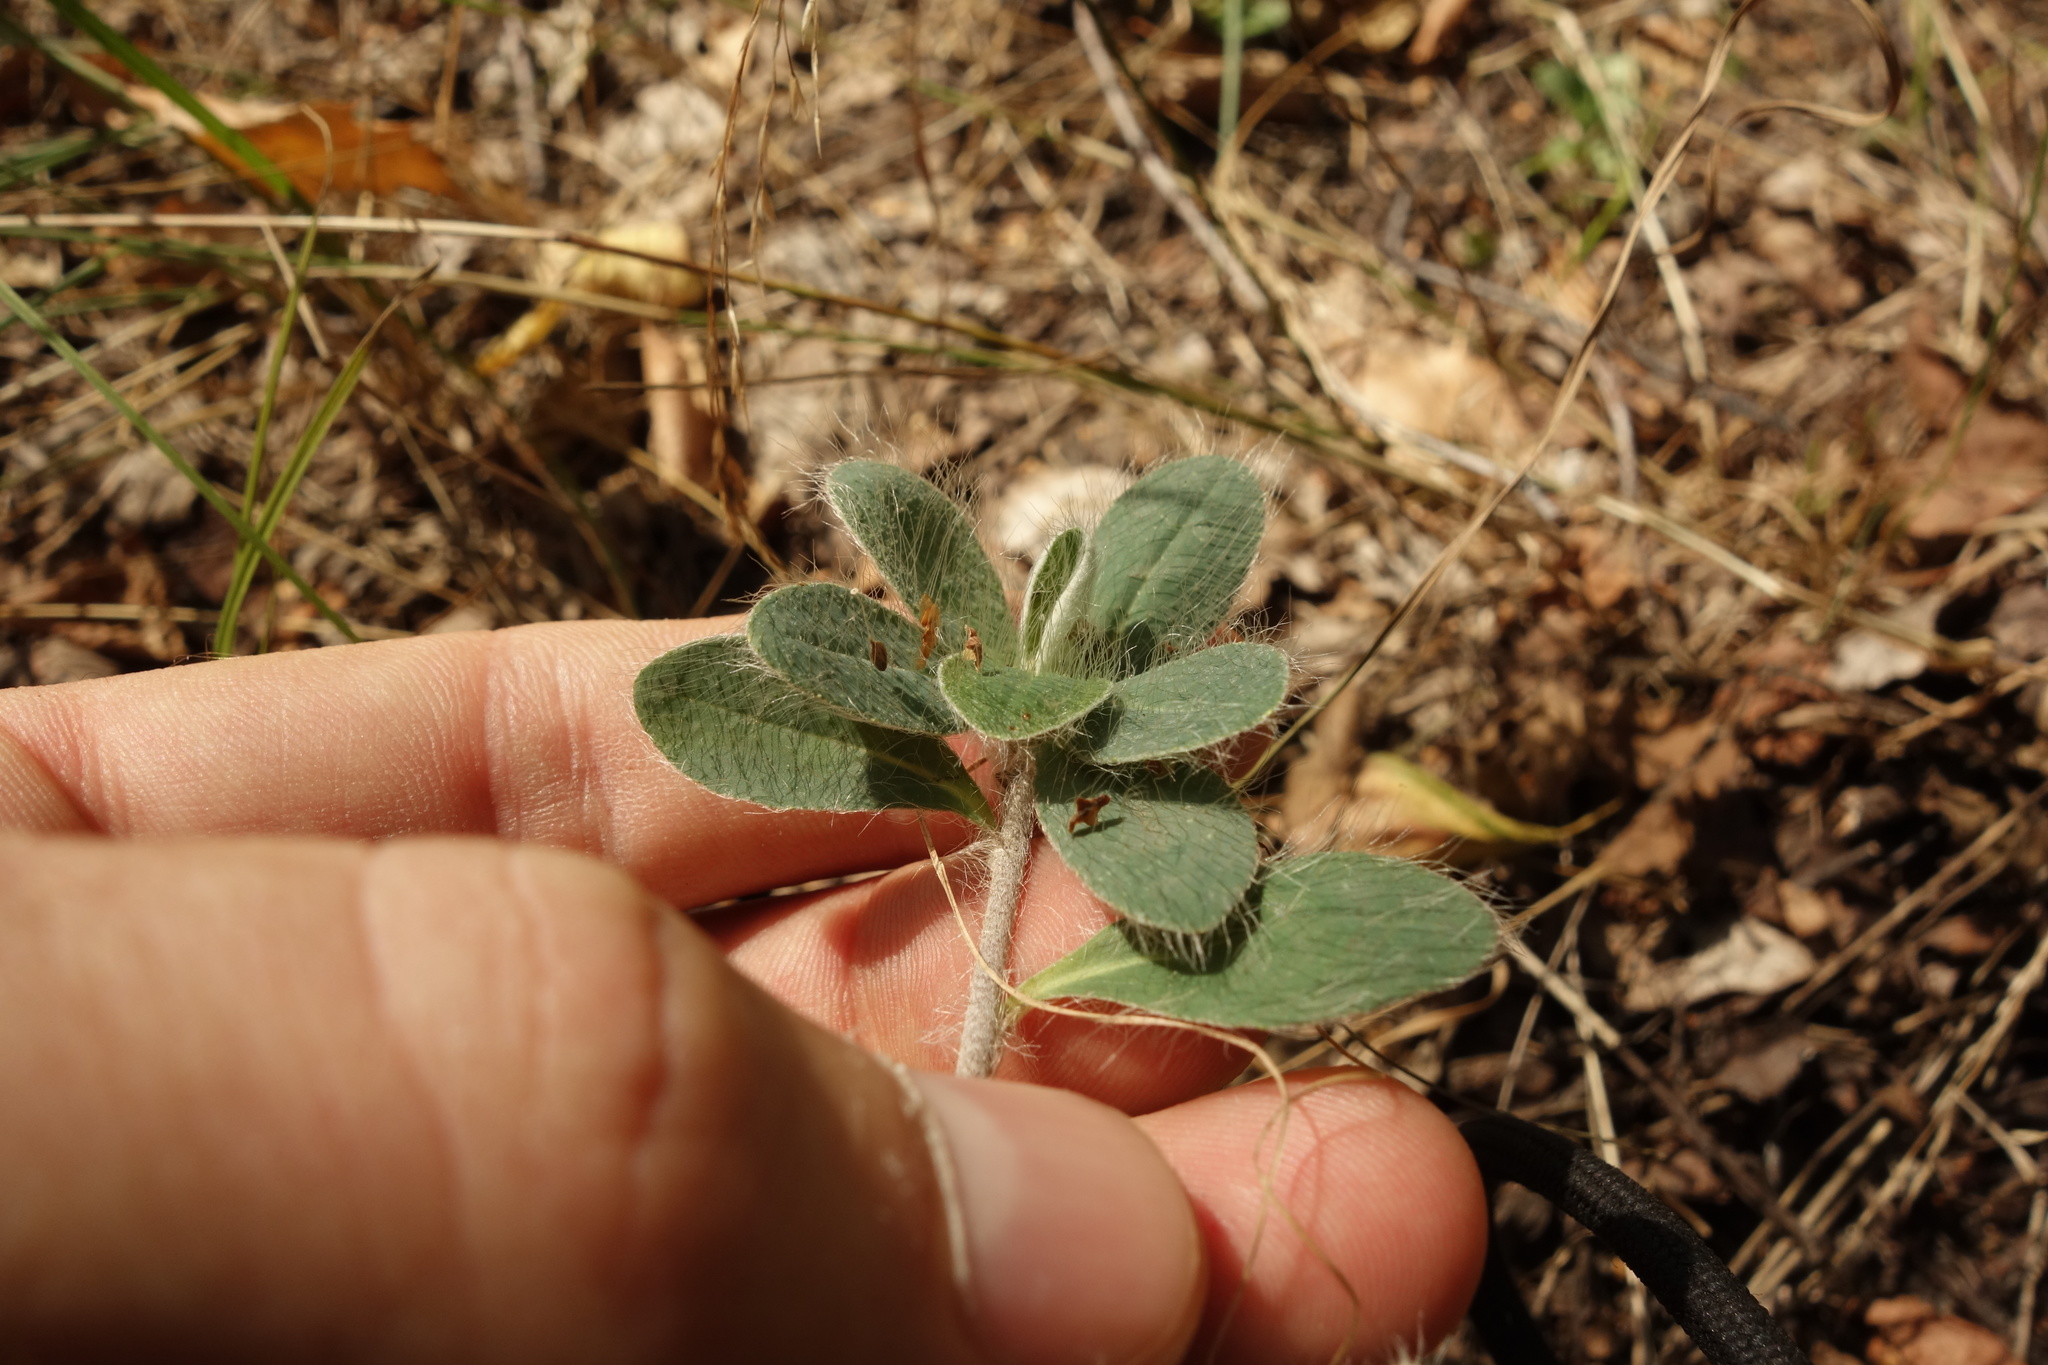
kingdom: Plantae
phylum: Tracheophyta
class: Magnoliopsida
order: Asterales
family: Asteraceae
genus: Pilosella
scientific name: Pilosella officinarum
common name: Mouse-ear hawkweed
